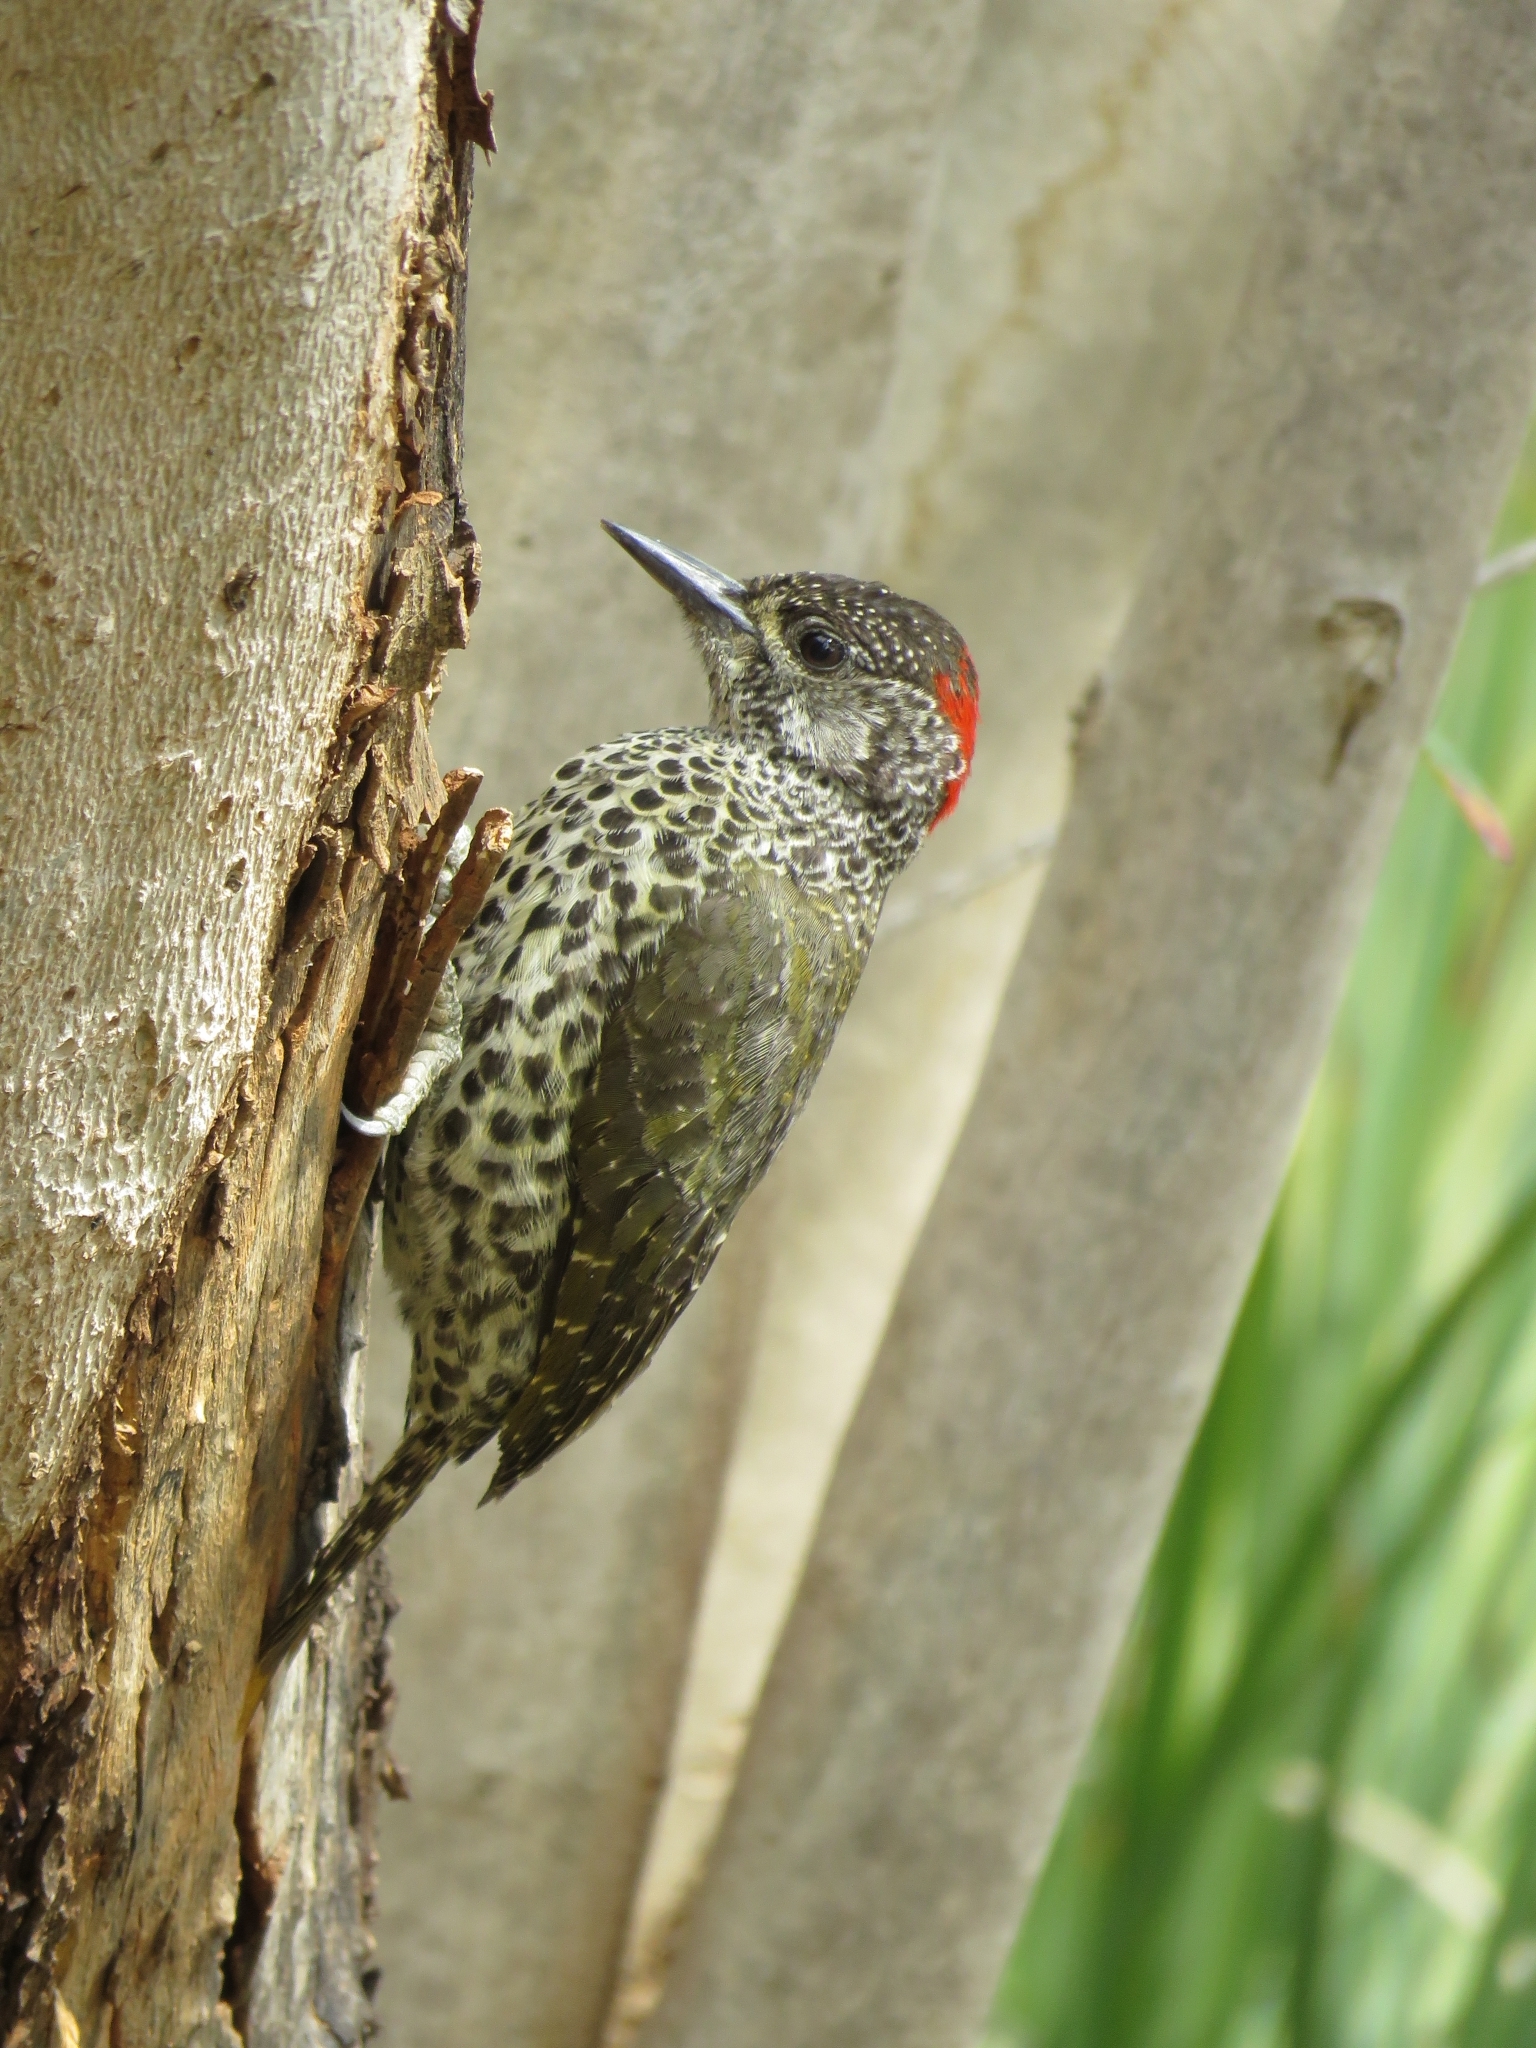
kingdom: Animalia
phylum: Chordata
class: Aves
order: Piciformes
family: Picidae
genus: Campethera
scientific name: Campethera notata
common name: Knysna woodpecker
